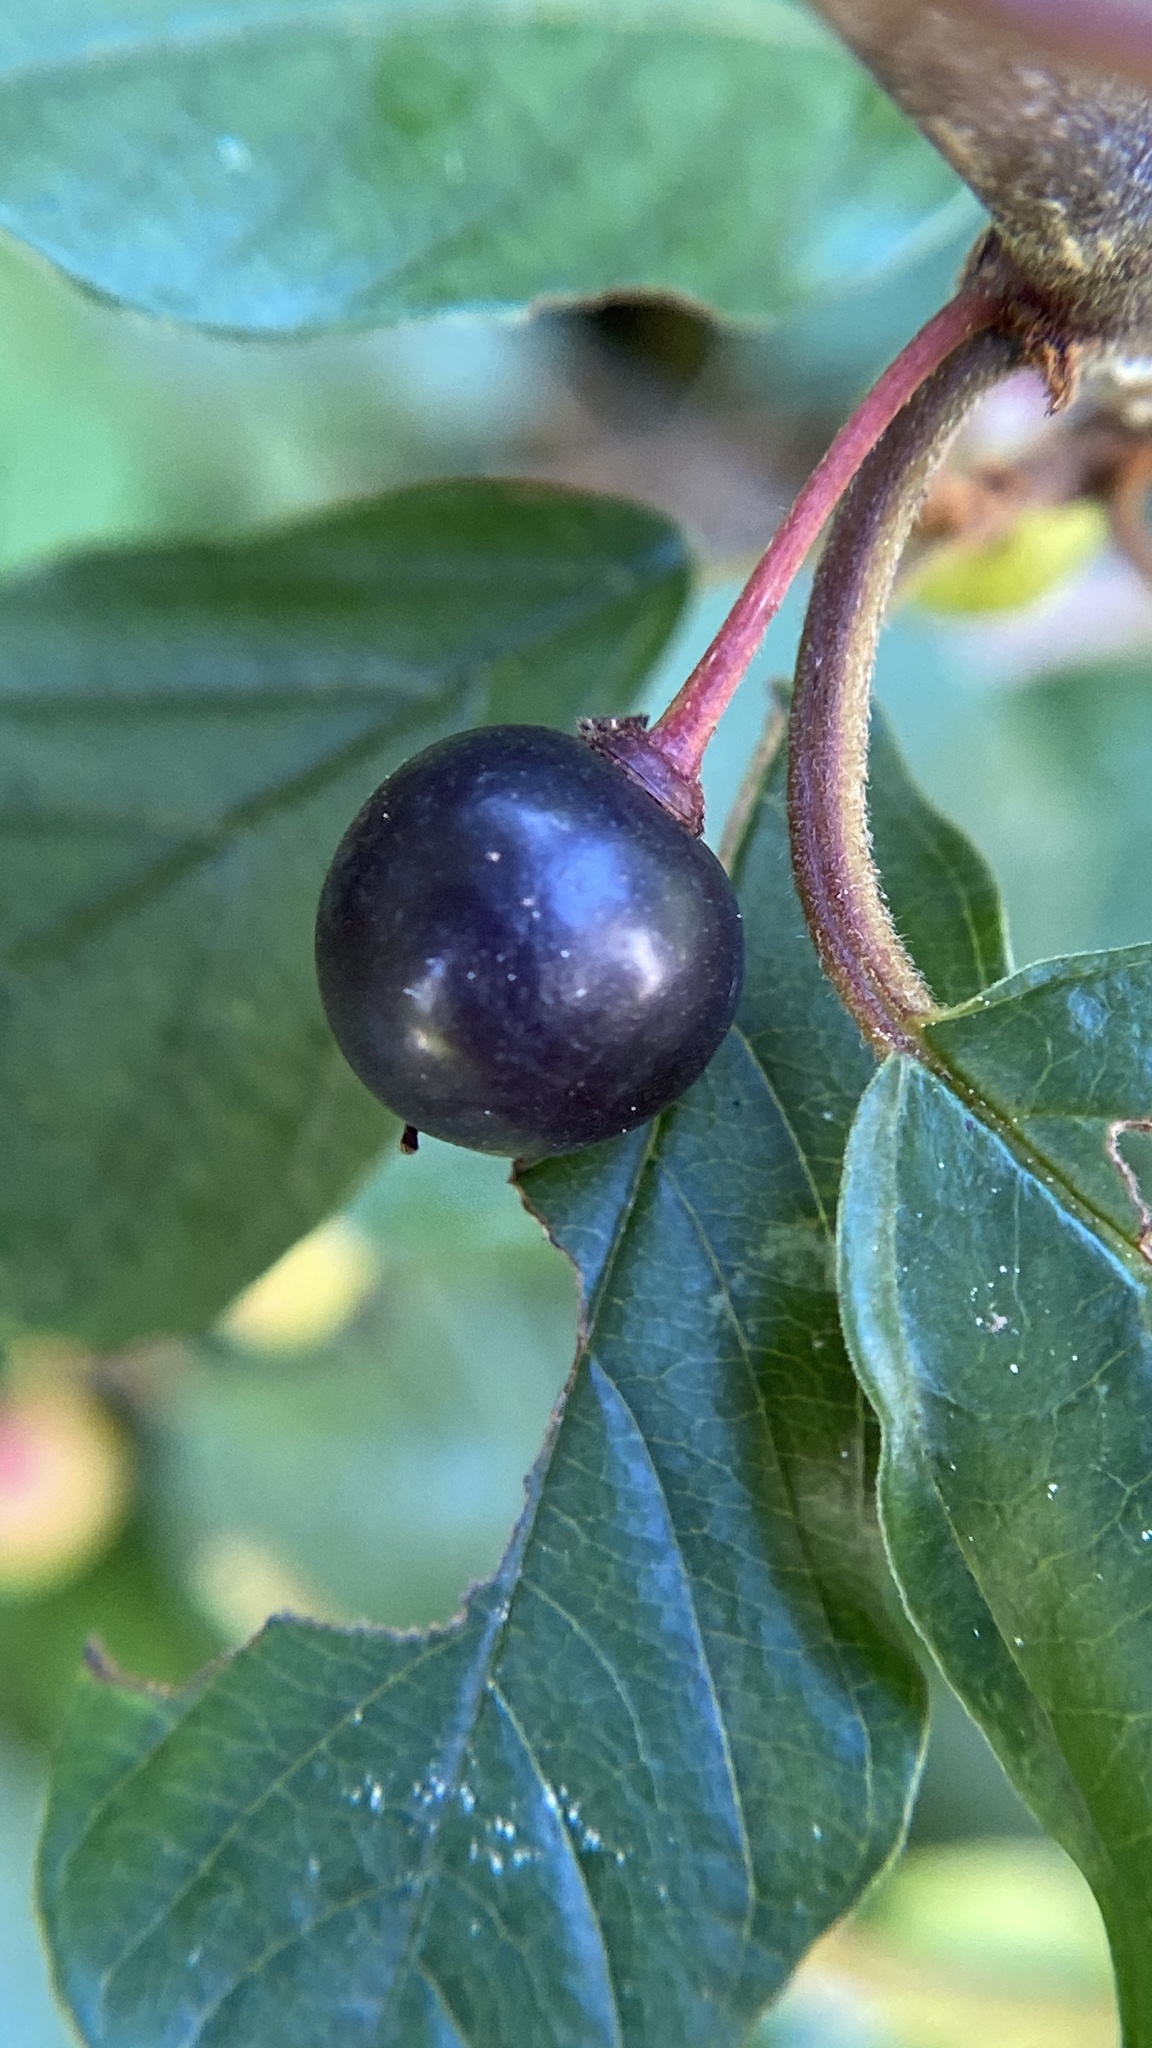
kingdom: Plantae
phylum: Tracheophyta
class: Magnoliopsida
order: Rosales
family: Rhamnaceae
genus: Frangula
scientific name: Frangula alnus
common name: Alder buckthorn
